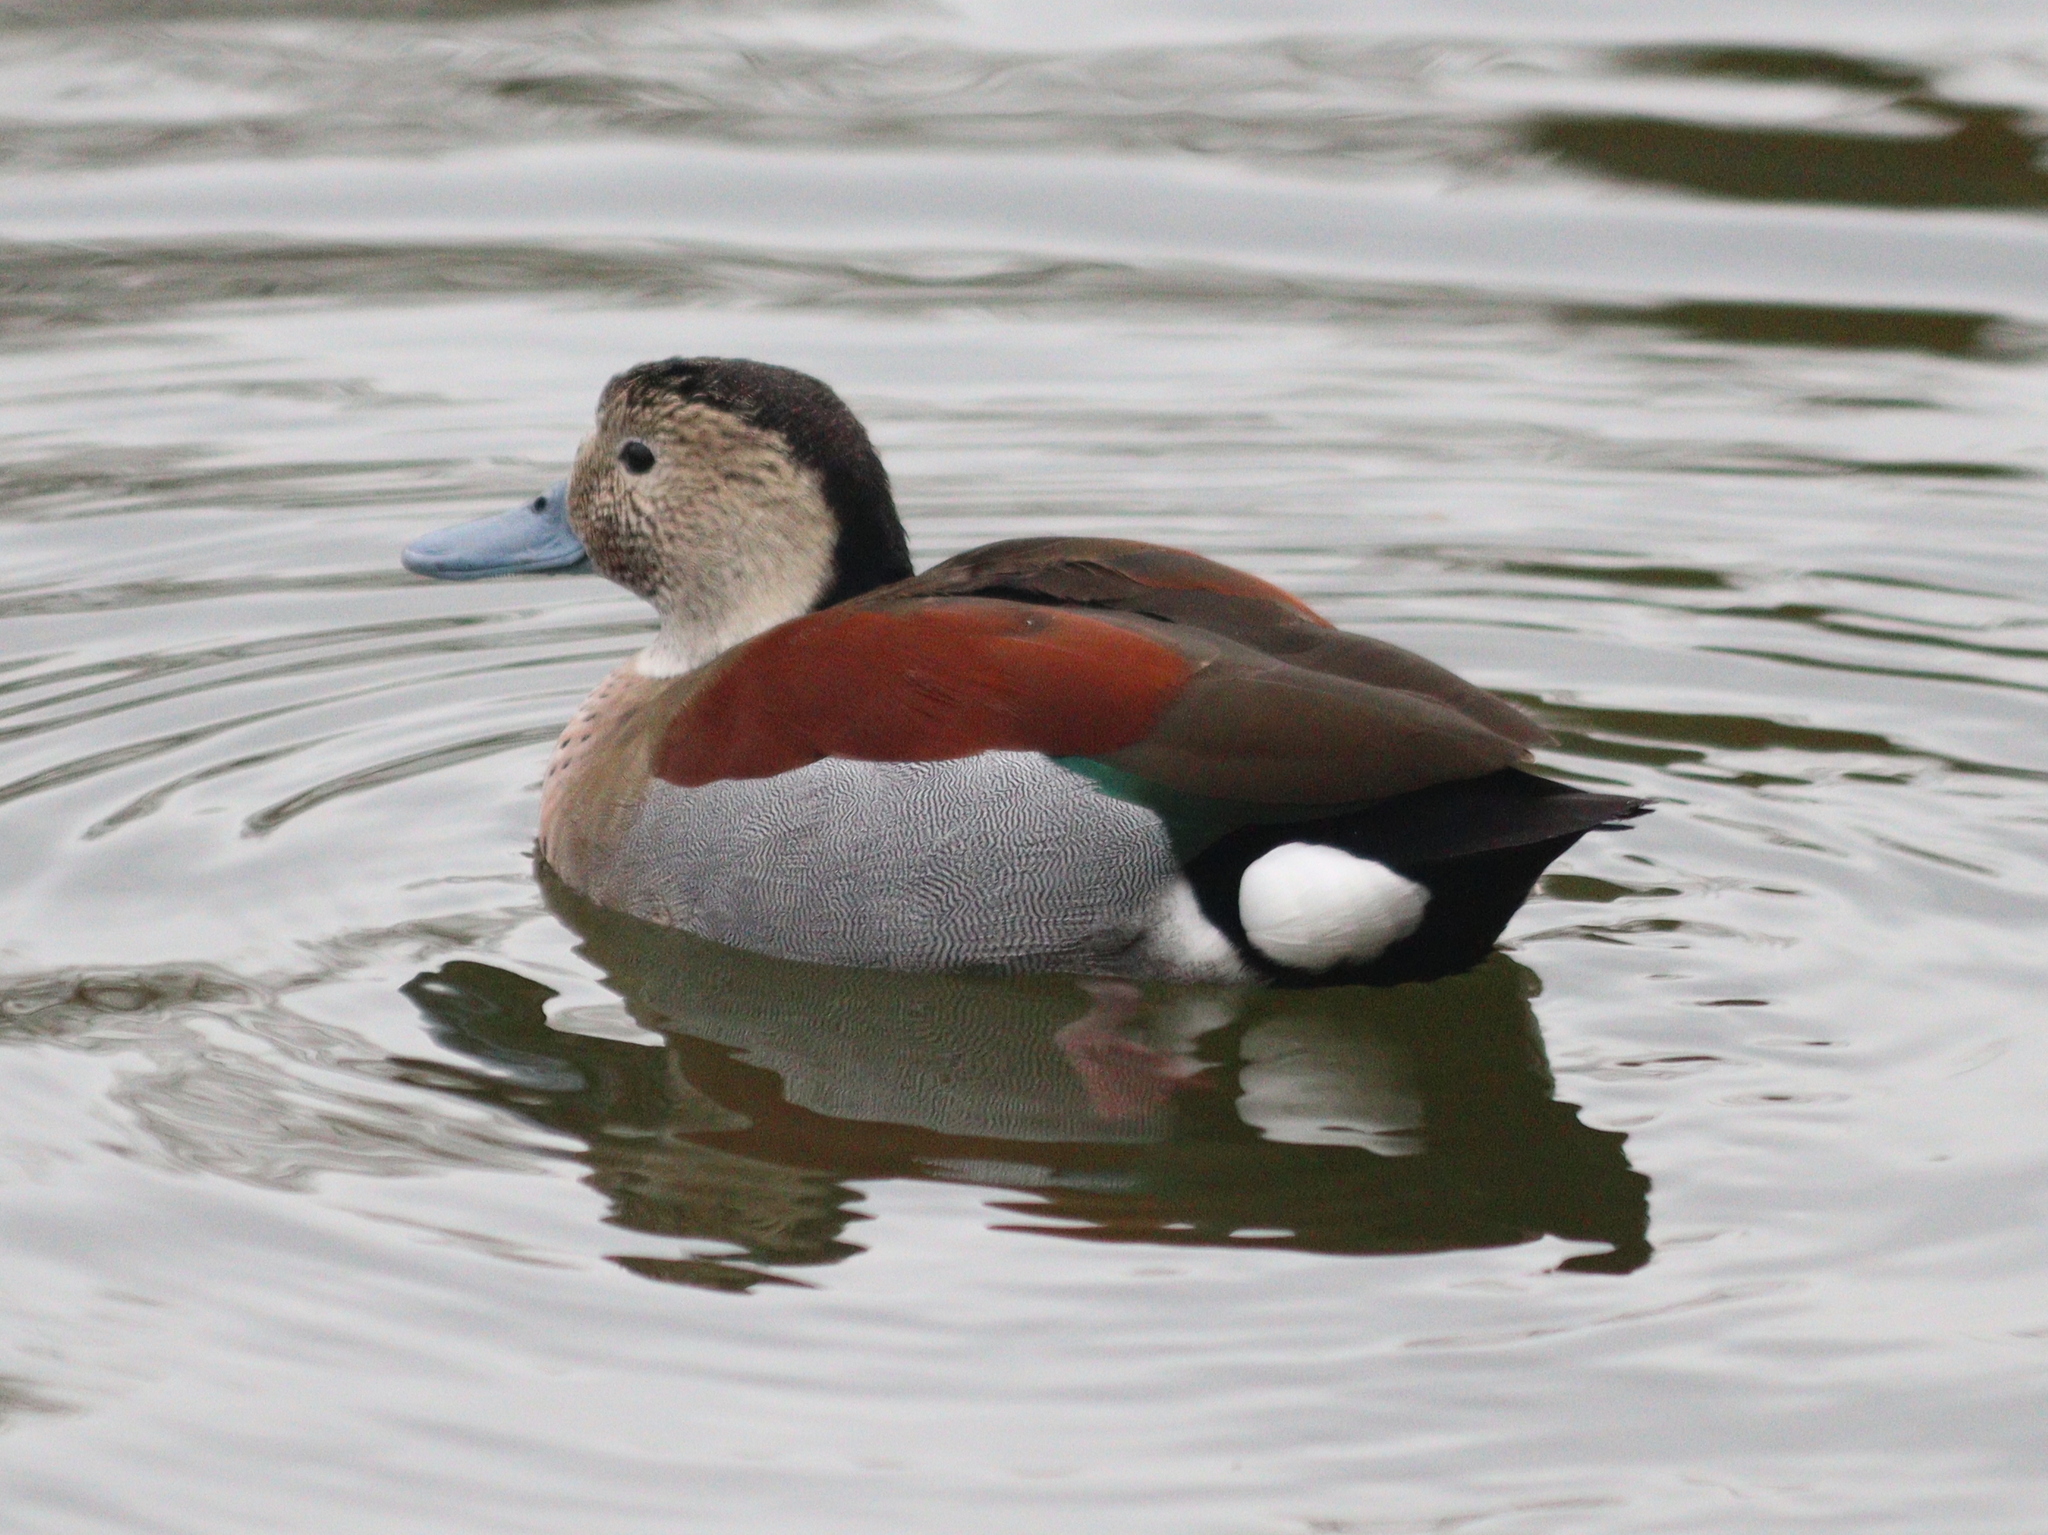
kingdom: Animalia
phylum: Chordata
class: Aves
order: Anseriformes
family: Anatidae
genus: Callonetta
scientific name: Callonetta leucophrys
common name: Ringed teal
